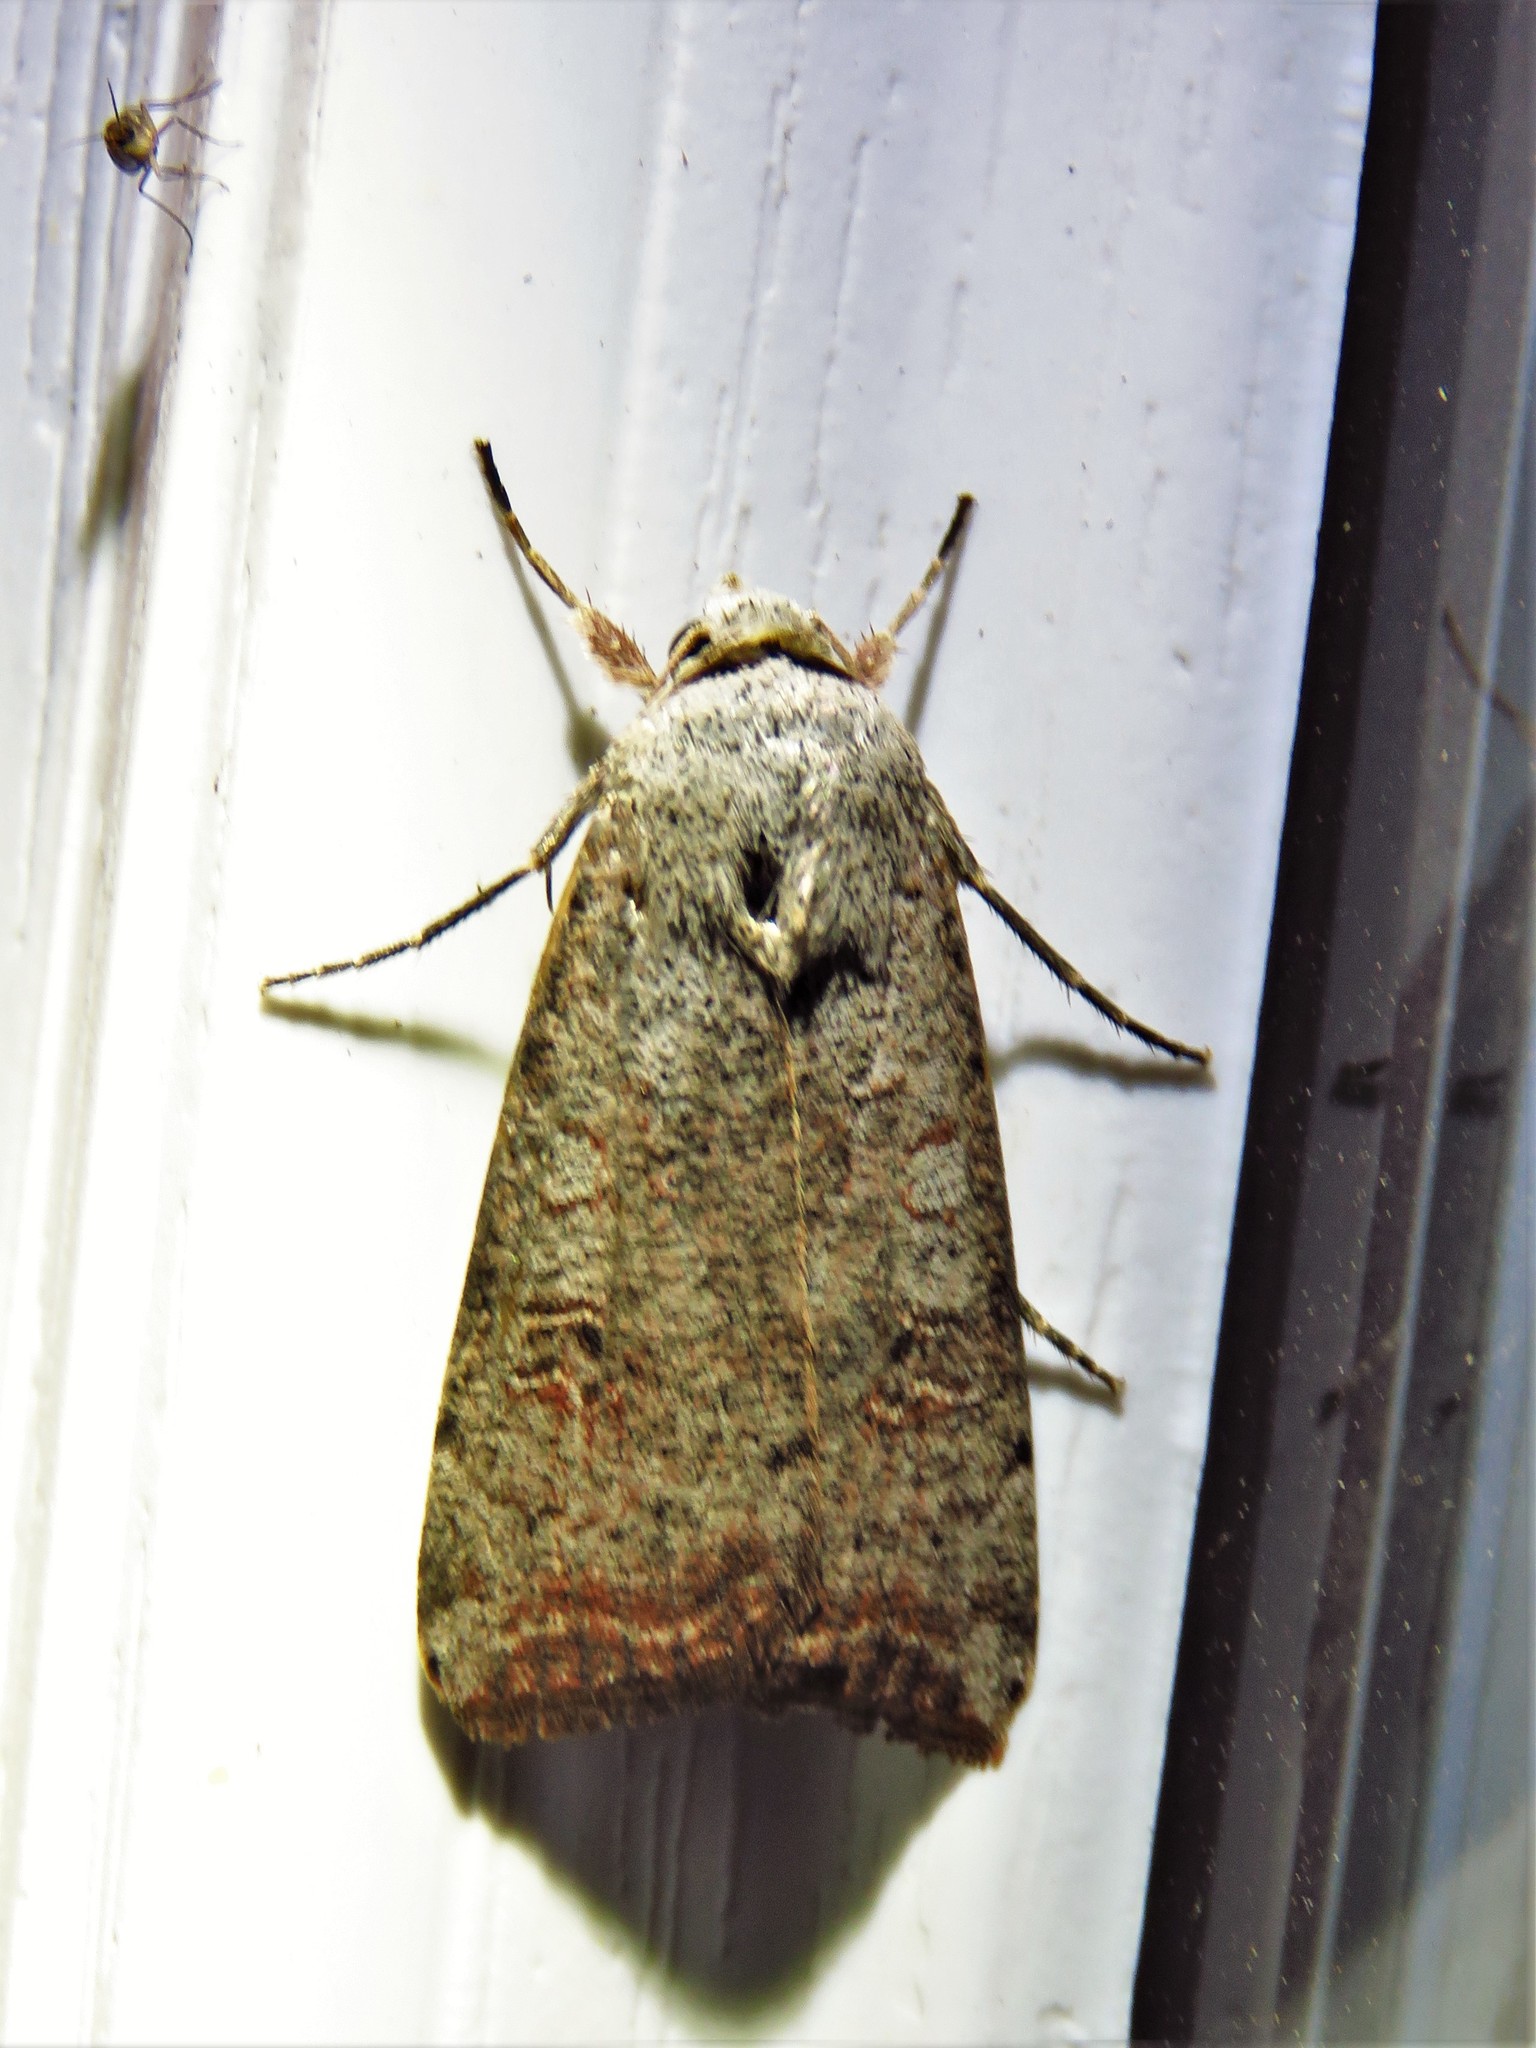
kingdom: Animalia
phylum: Arthropoda
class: Insecta
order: Lepidoptera
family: Noctuidae
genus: Anicla
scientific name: Anicla infecta
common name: Green cutworm
